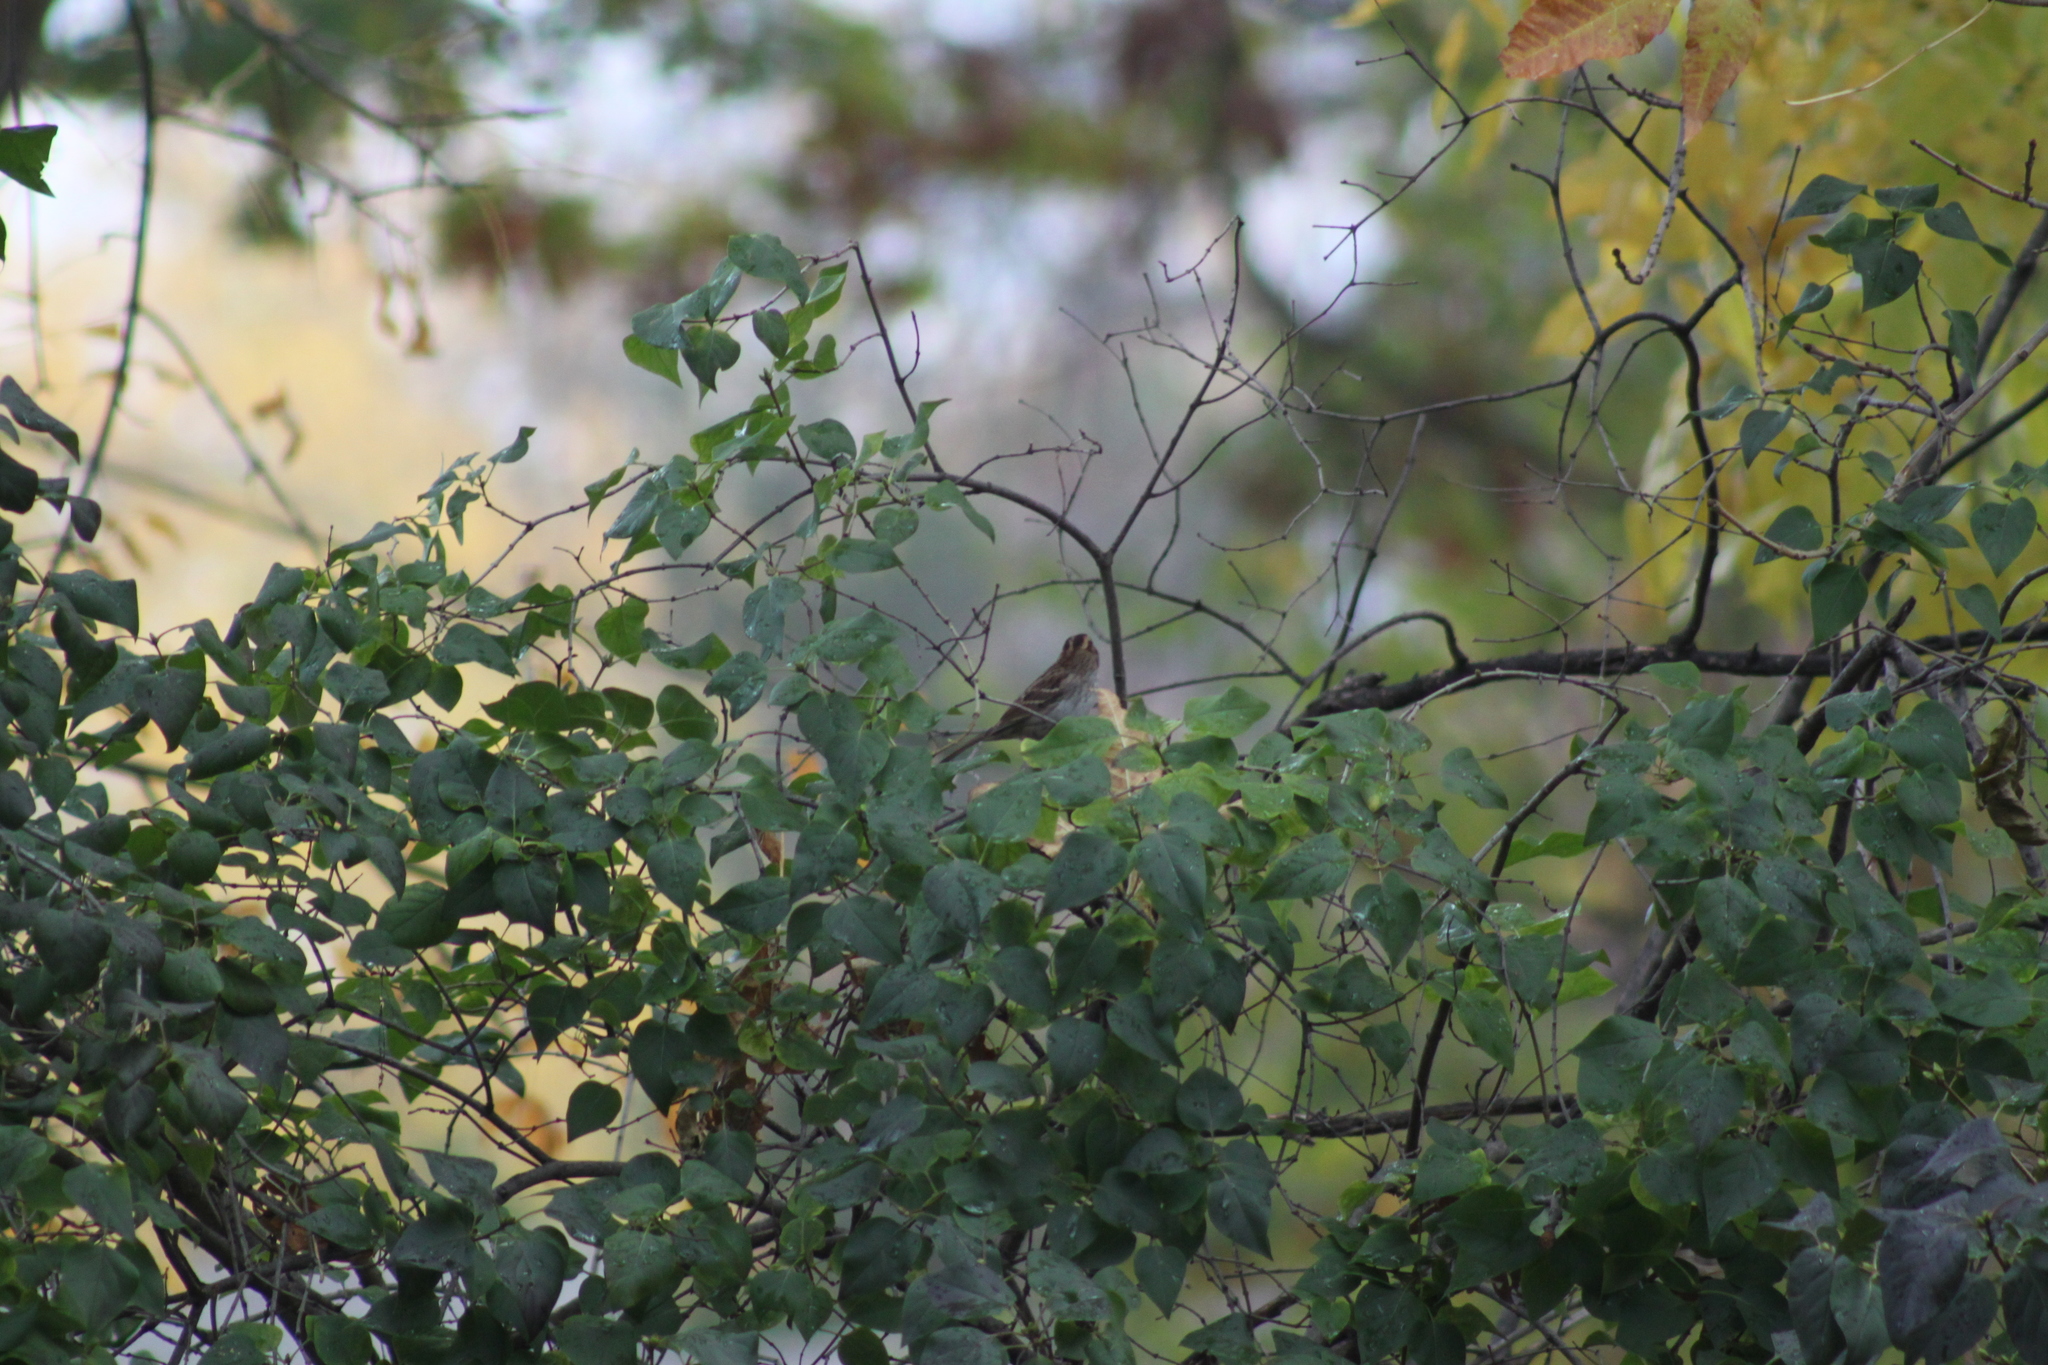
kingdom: Animalia
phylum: Chordata
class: Aves
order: Passeriformes
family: Passerellidae
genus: Zonotrichia
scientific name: Zonotrichia albicollis
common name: White-throated sparrow
